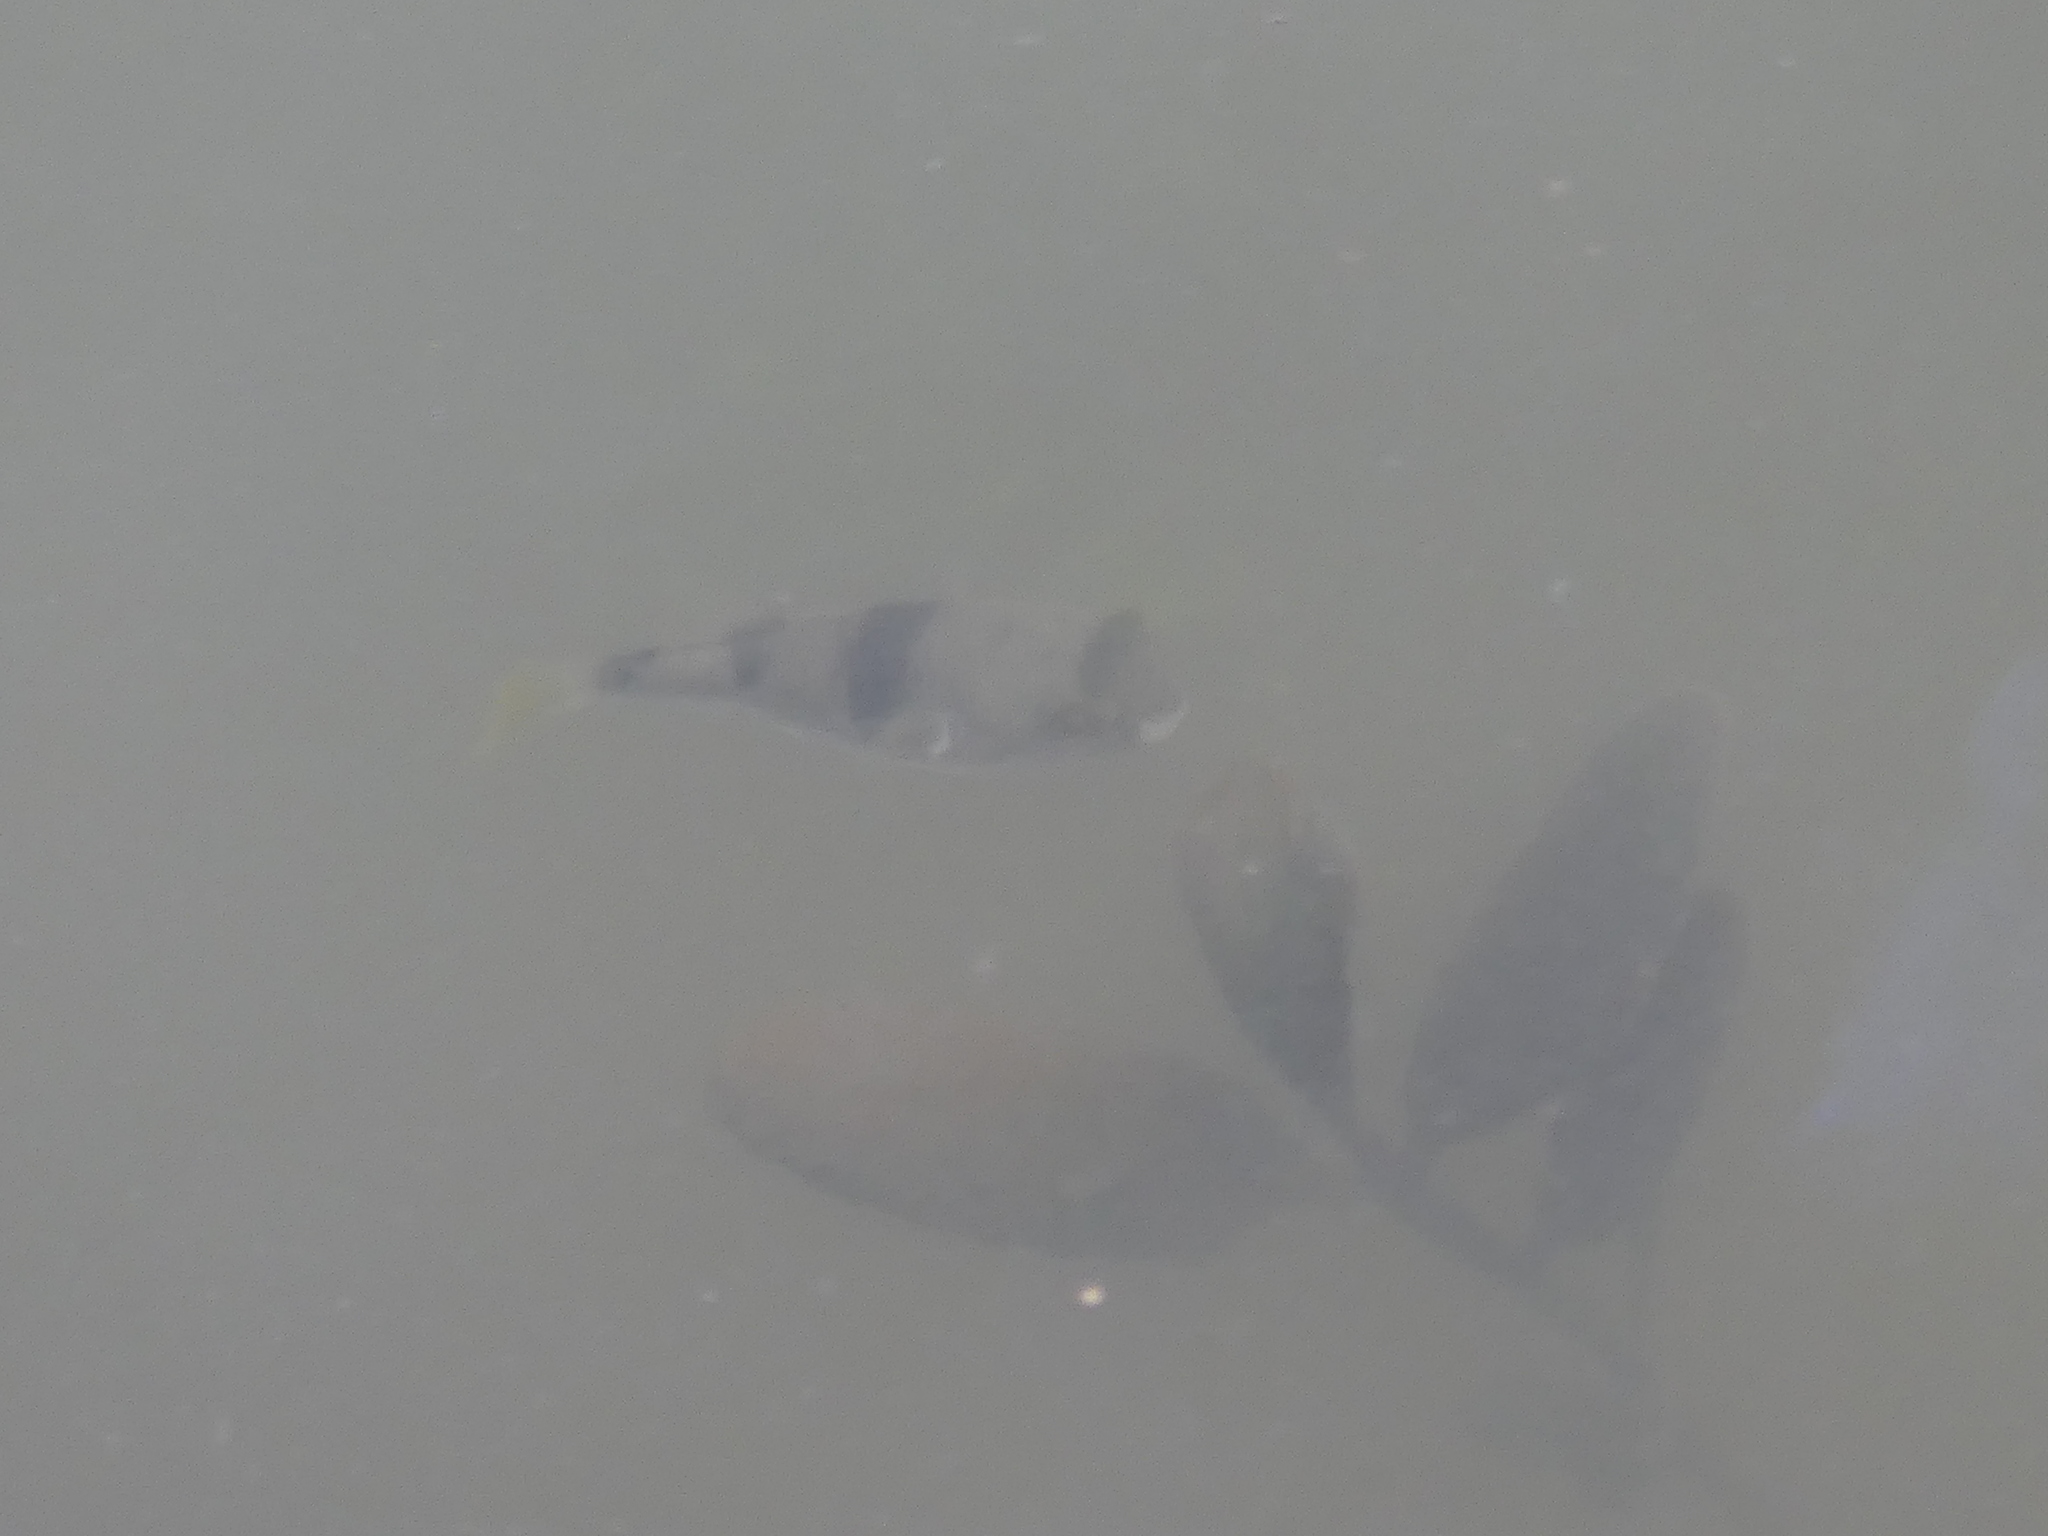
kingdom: Animalia
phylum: Chordata
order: Tetraodontiformes
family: Tetraodontidae
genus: Marilyna
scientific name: Marilyna pleurosticta
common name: Banded toadfish
